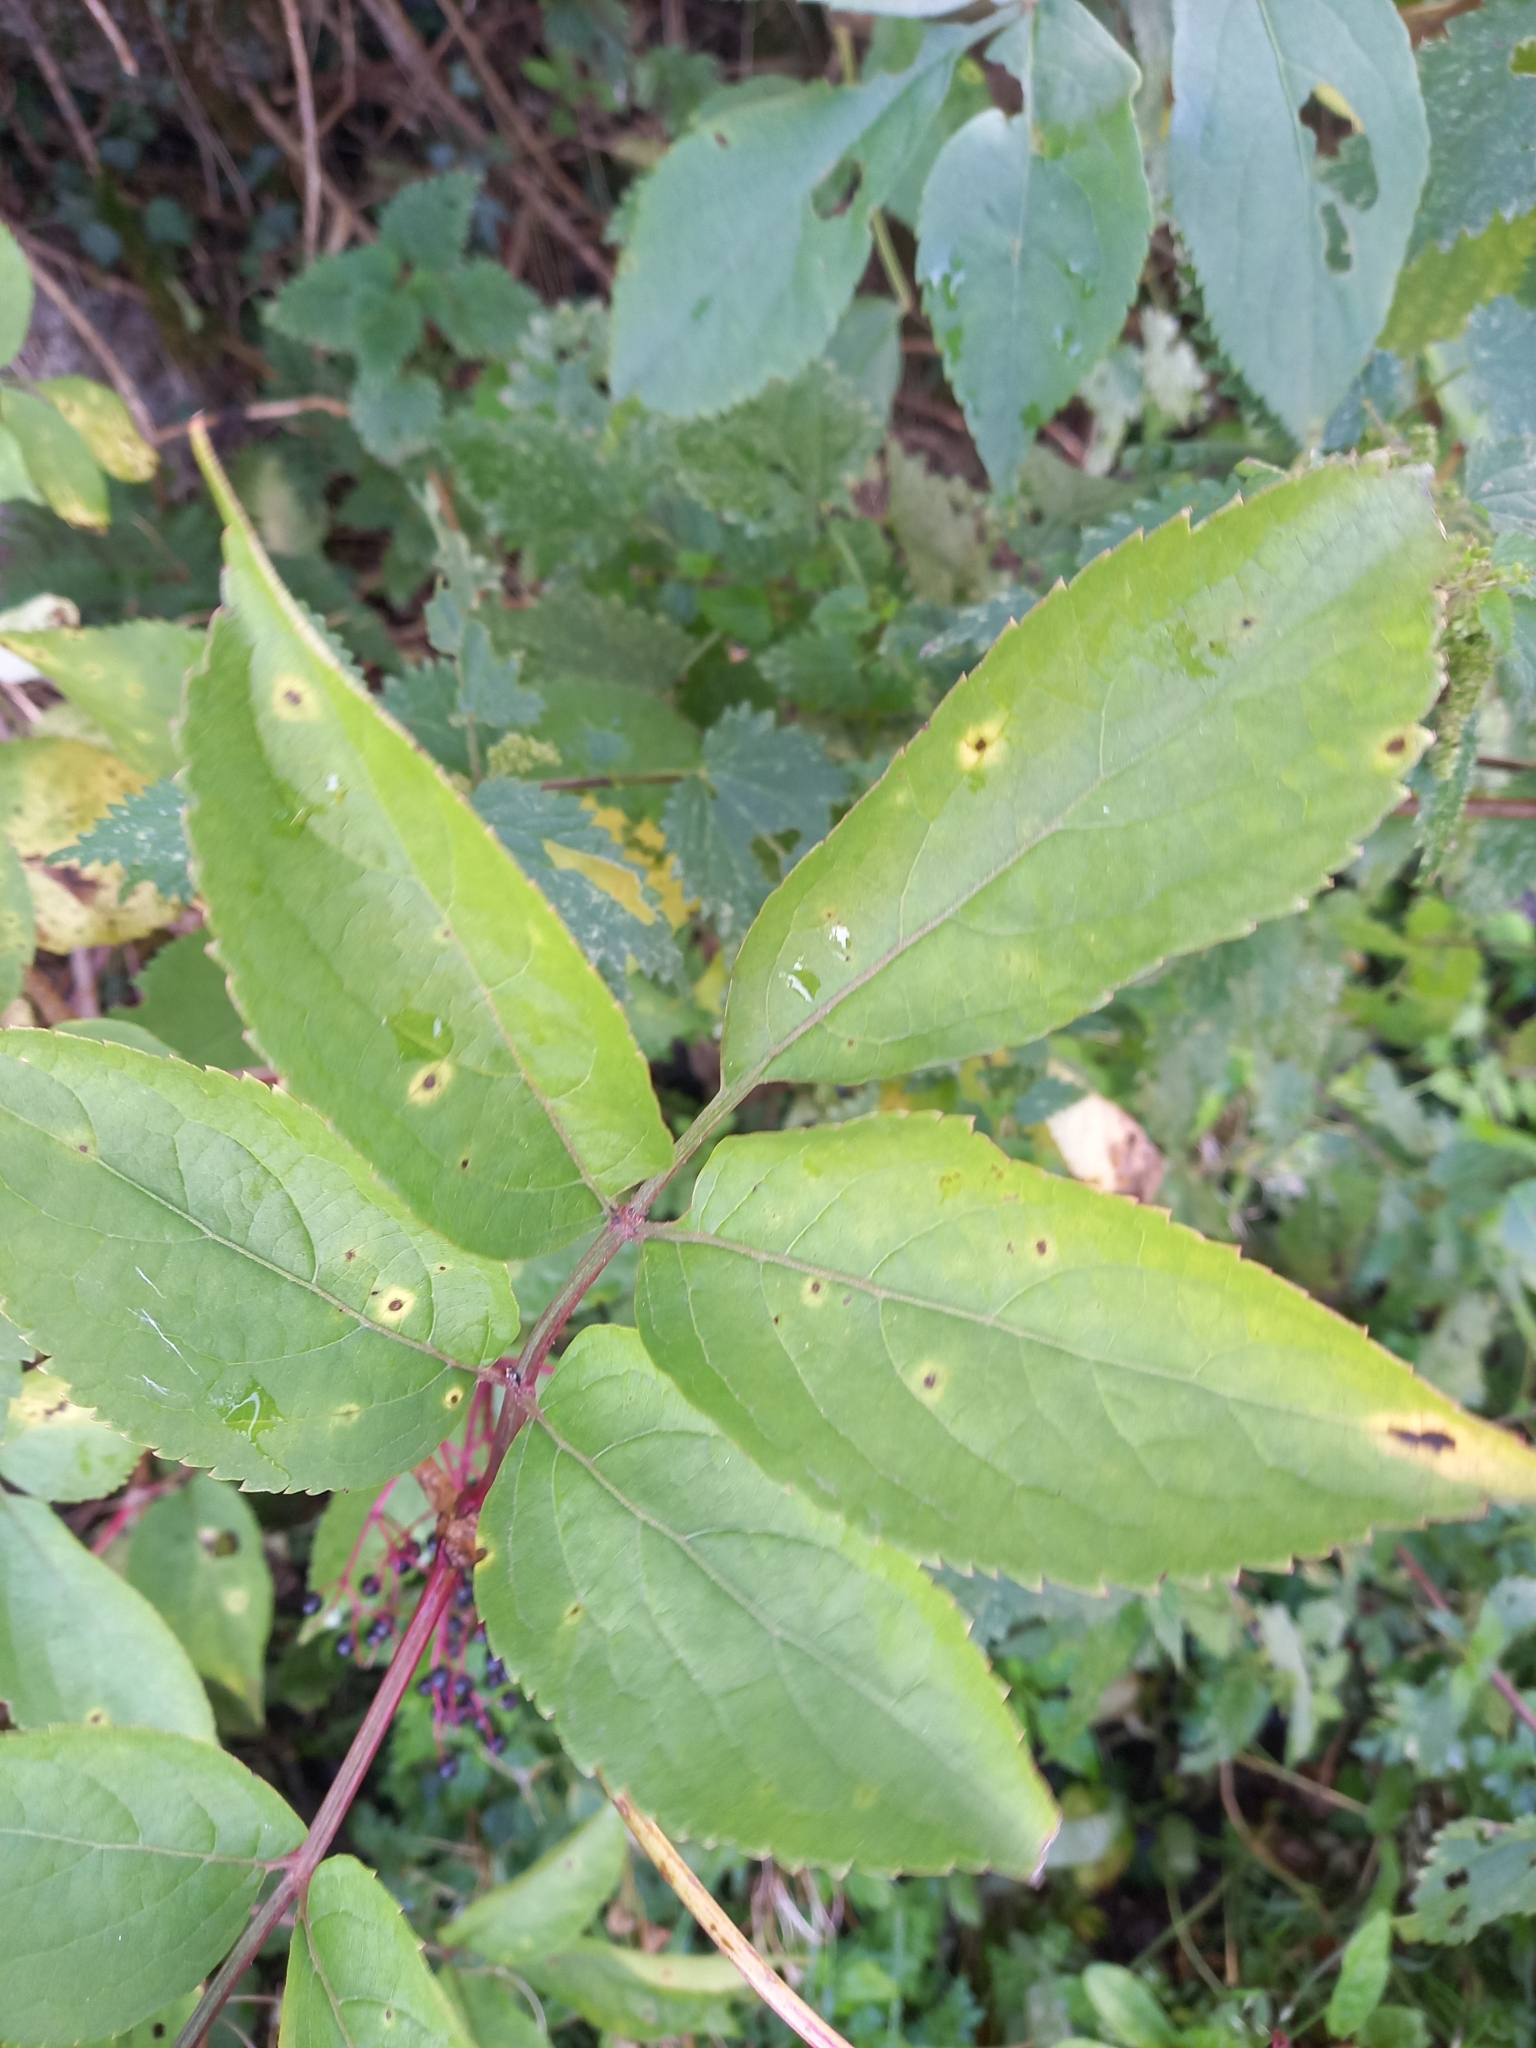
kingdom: Plantae
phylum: Tracheophyta
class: Magnoliopsida
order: Dipsacales
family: Viburnaceae
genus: Sambucus
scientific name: Sambucus nigra
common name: Elder
